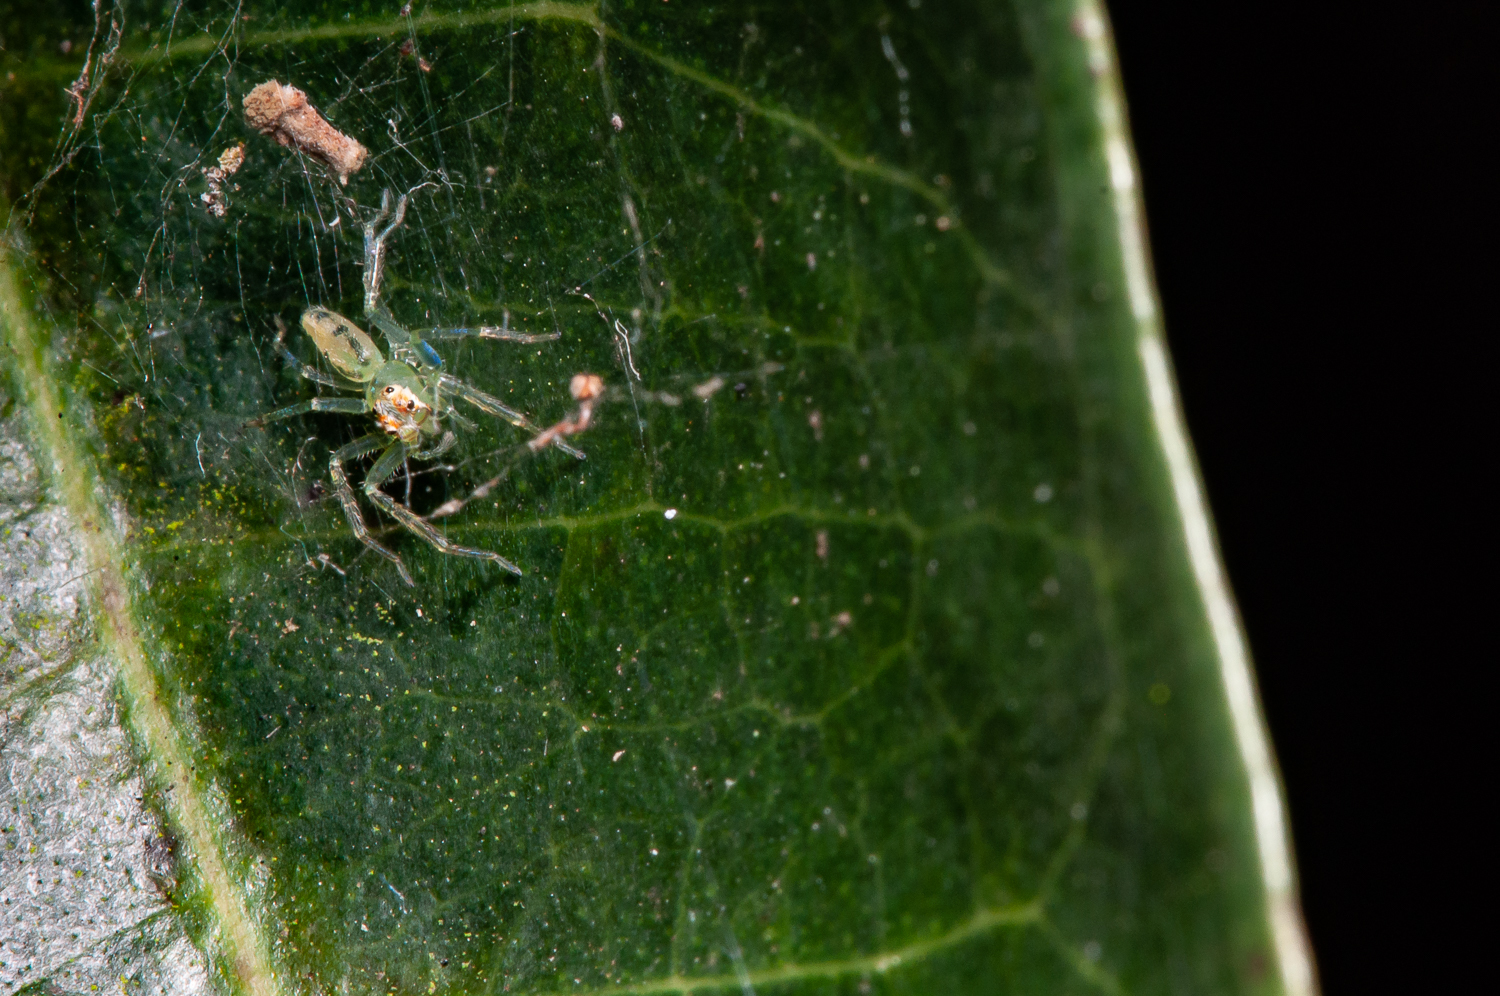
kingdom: Animalia
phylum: Arthropoda
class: Arachnida
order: Araneae
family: Salticidae
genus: Lyssomanes
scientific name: Lyssomanes
